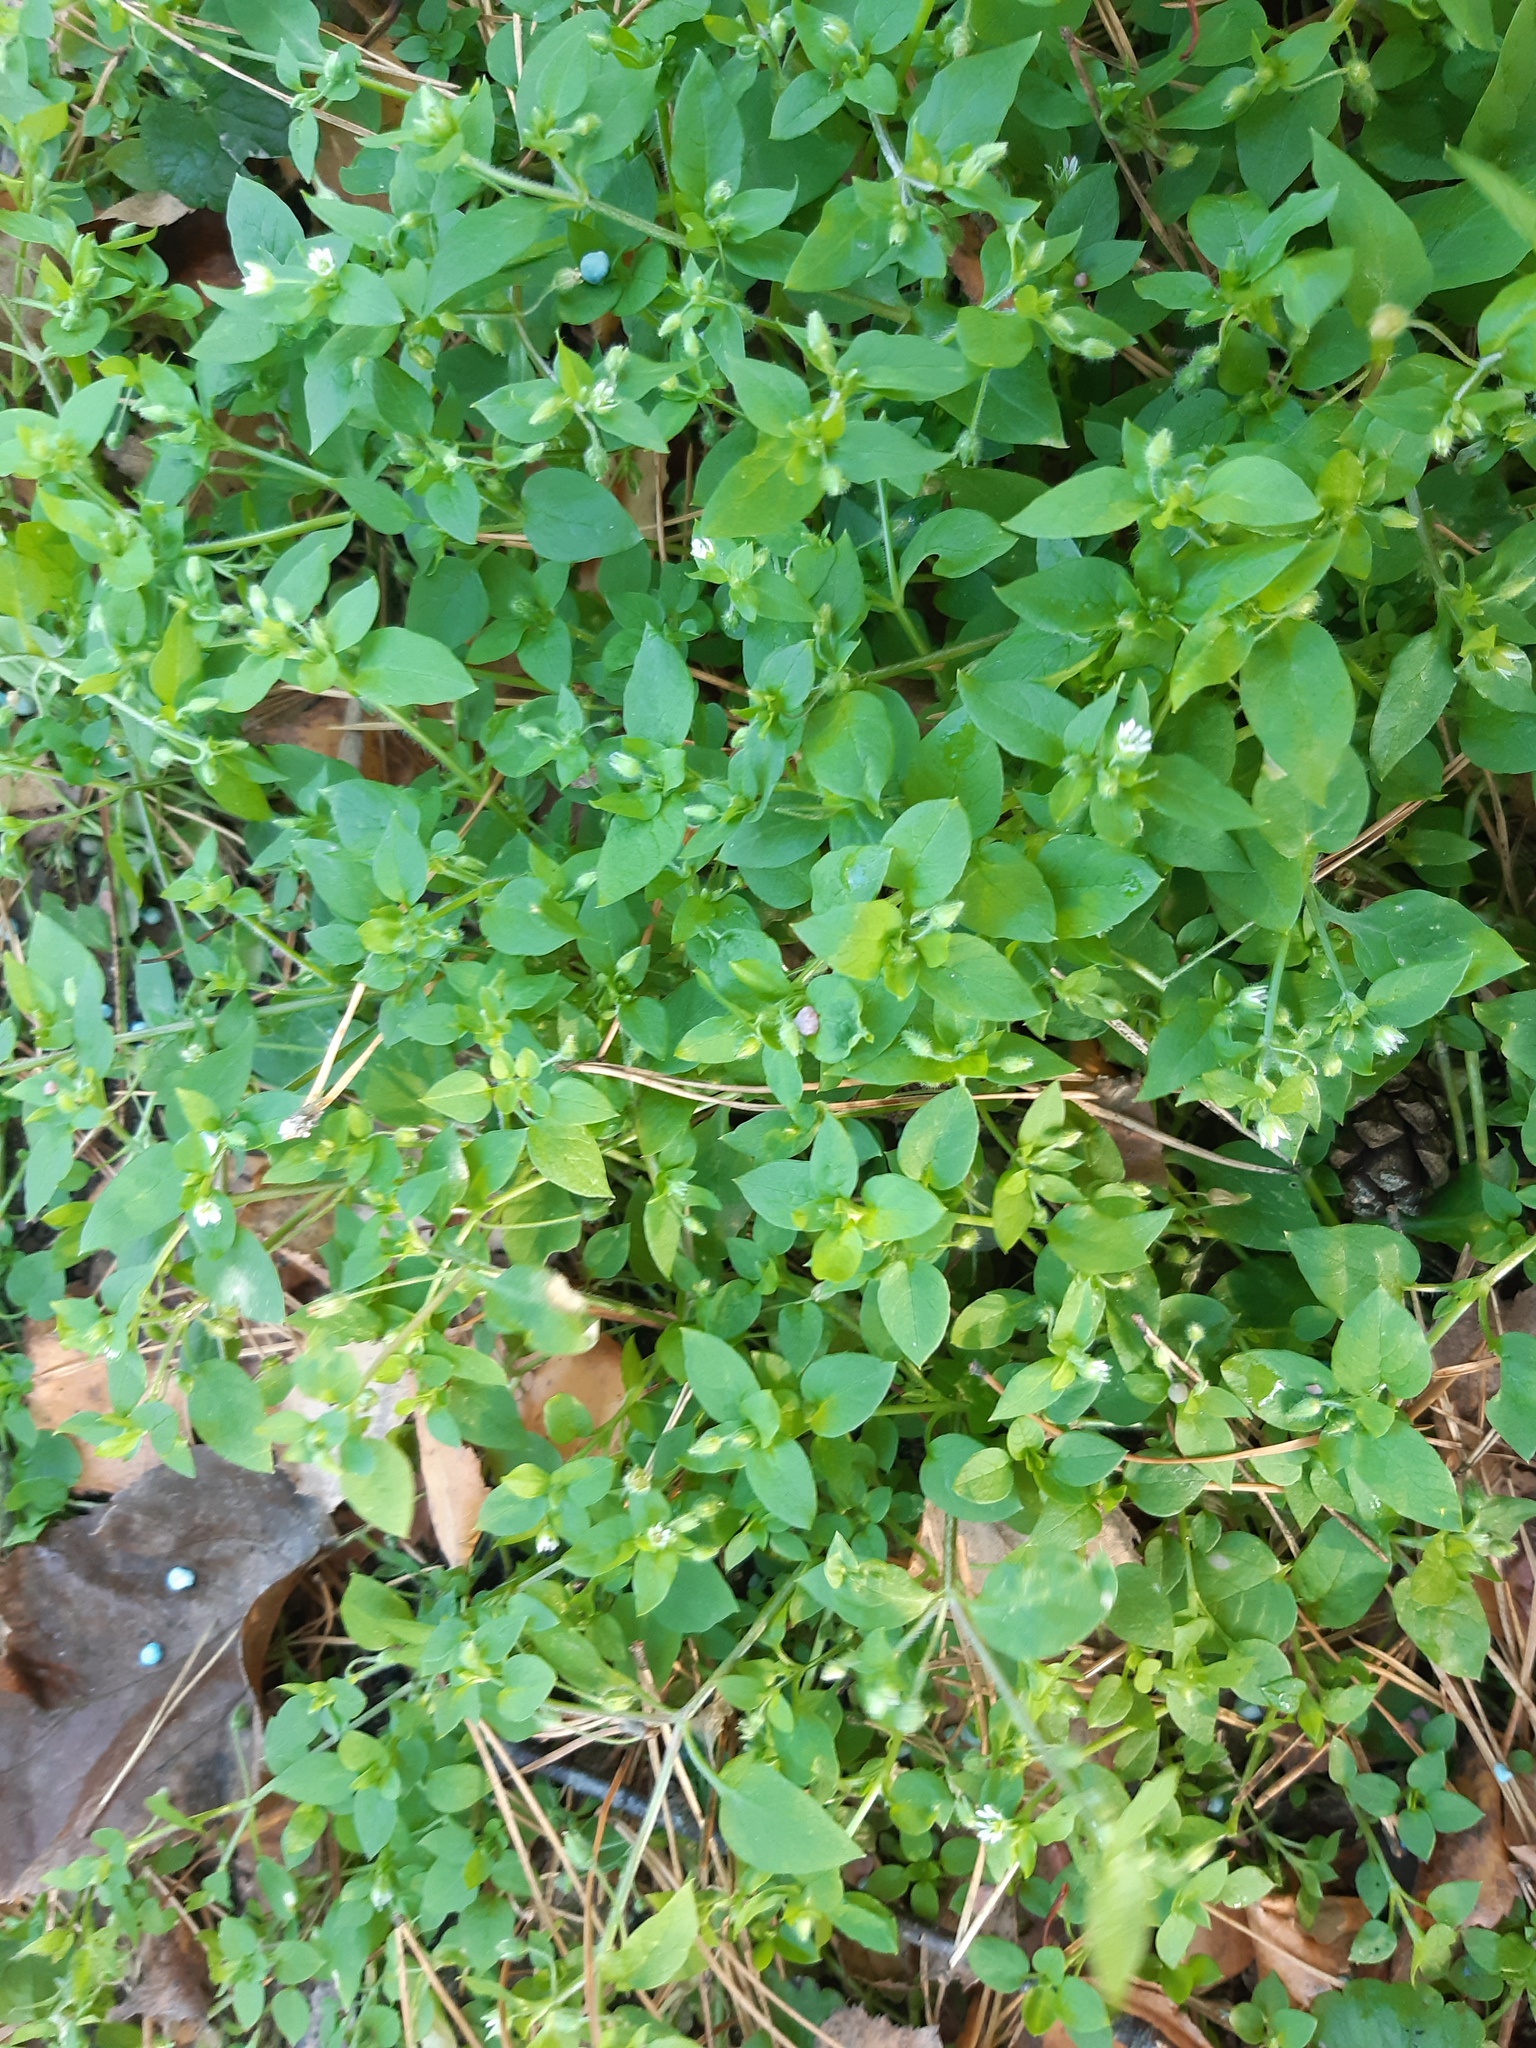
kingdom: Plantae
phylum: Tracheophyta
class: Magnoliopsida
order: Caryophyllales
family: Caryophyllaceae
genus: Stellaria
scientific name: Stellaria media
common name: Common chickweed
